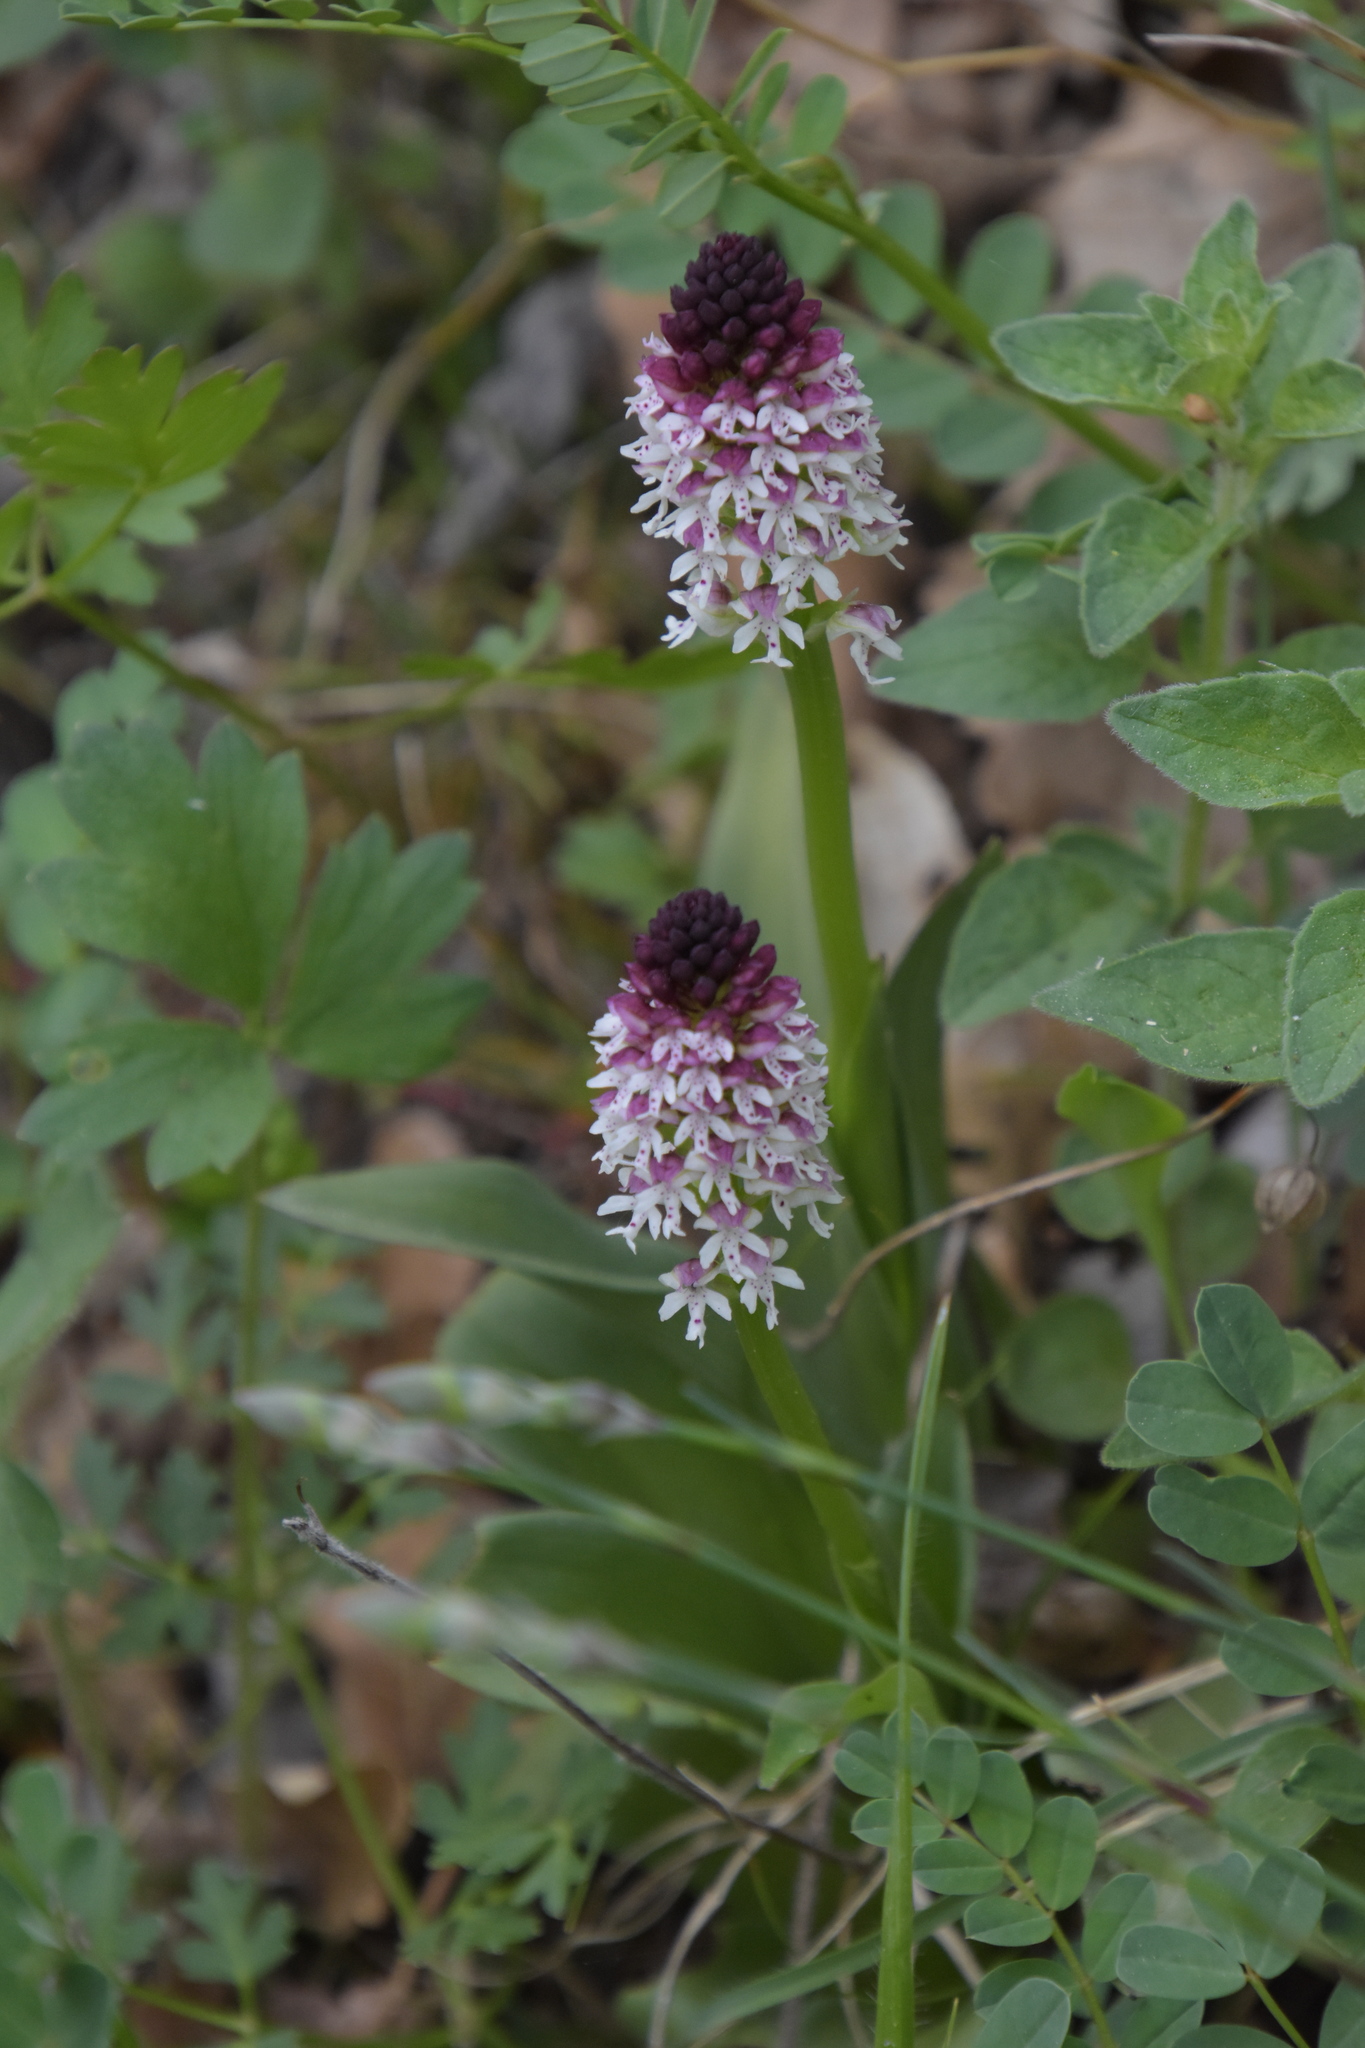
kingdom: Plantae
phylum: Tracheophyta
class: Liliopsida
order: Asparagales
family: Orchidaceae
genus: Neotinea
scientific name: Neotinea ustulata
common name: Burnt orchid
